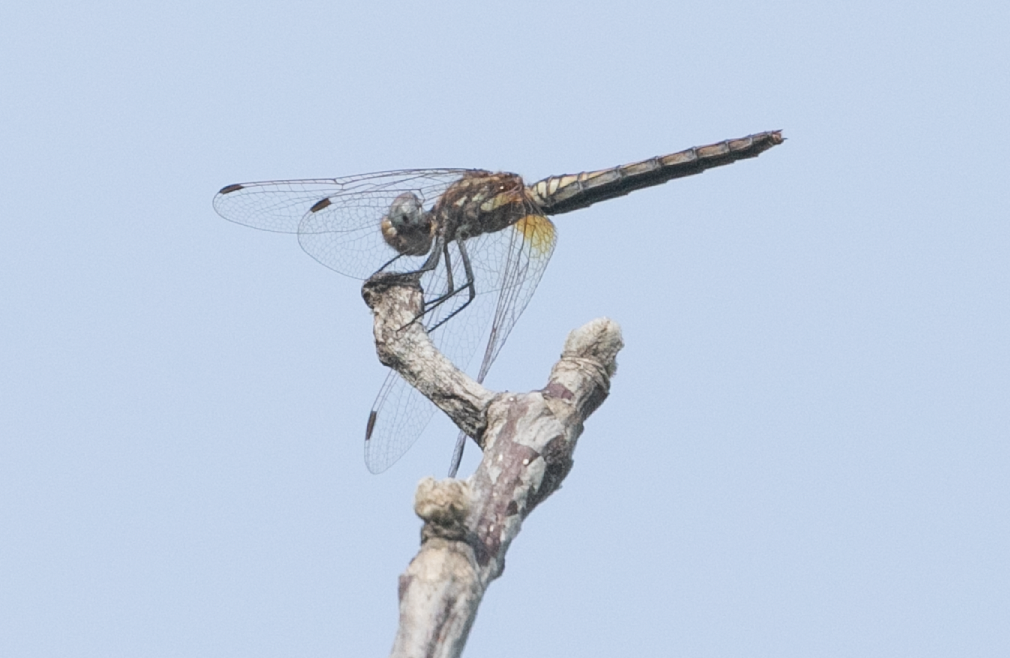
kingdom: Animalia
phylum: Arthropoda
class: Insecta
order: Odonata
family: Libellulidae
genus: Trithemis
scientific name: Trithemis annulata
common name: Violet dropwing
